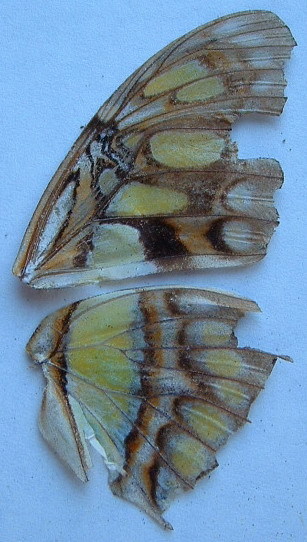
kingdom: Animalia
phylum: Arthropoda
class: Insecta
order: Lepidoptera
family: Nymphalidae
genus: Siproeta
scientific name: Siproeta stelenes
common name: Malachite
